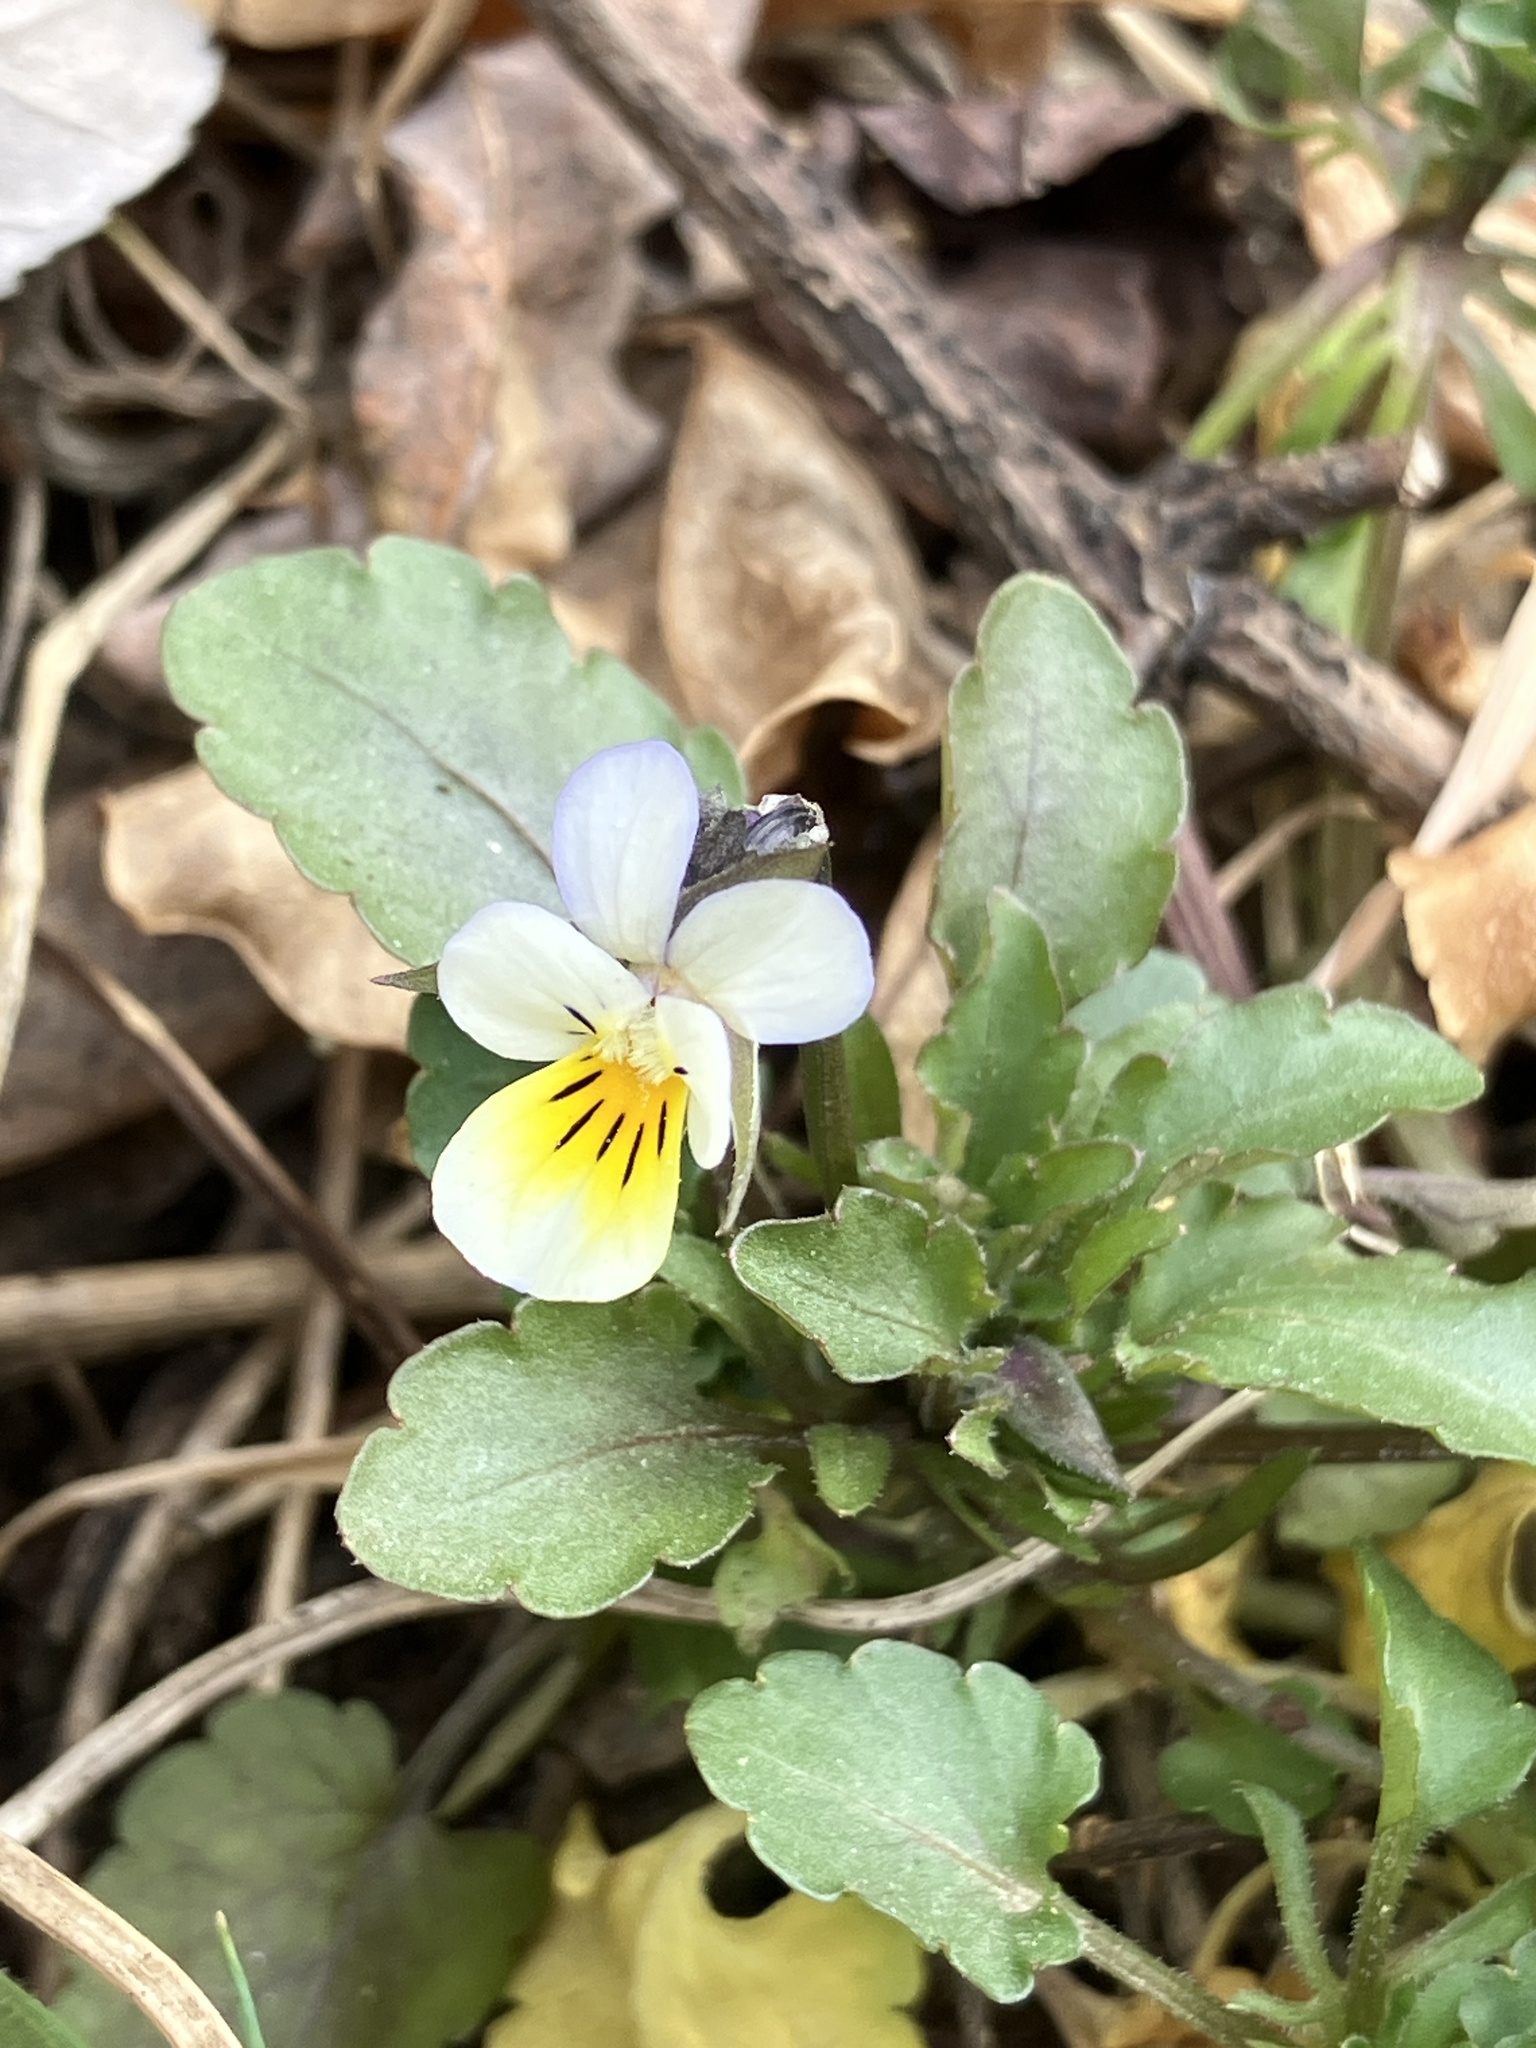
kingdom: Plantae
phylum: Tracheophyta
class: Magnoliopsida
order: Malpighiales
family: Violaceae
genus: Viola
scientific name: Viola arvensis
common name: Field pansy
